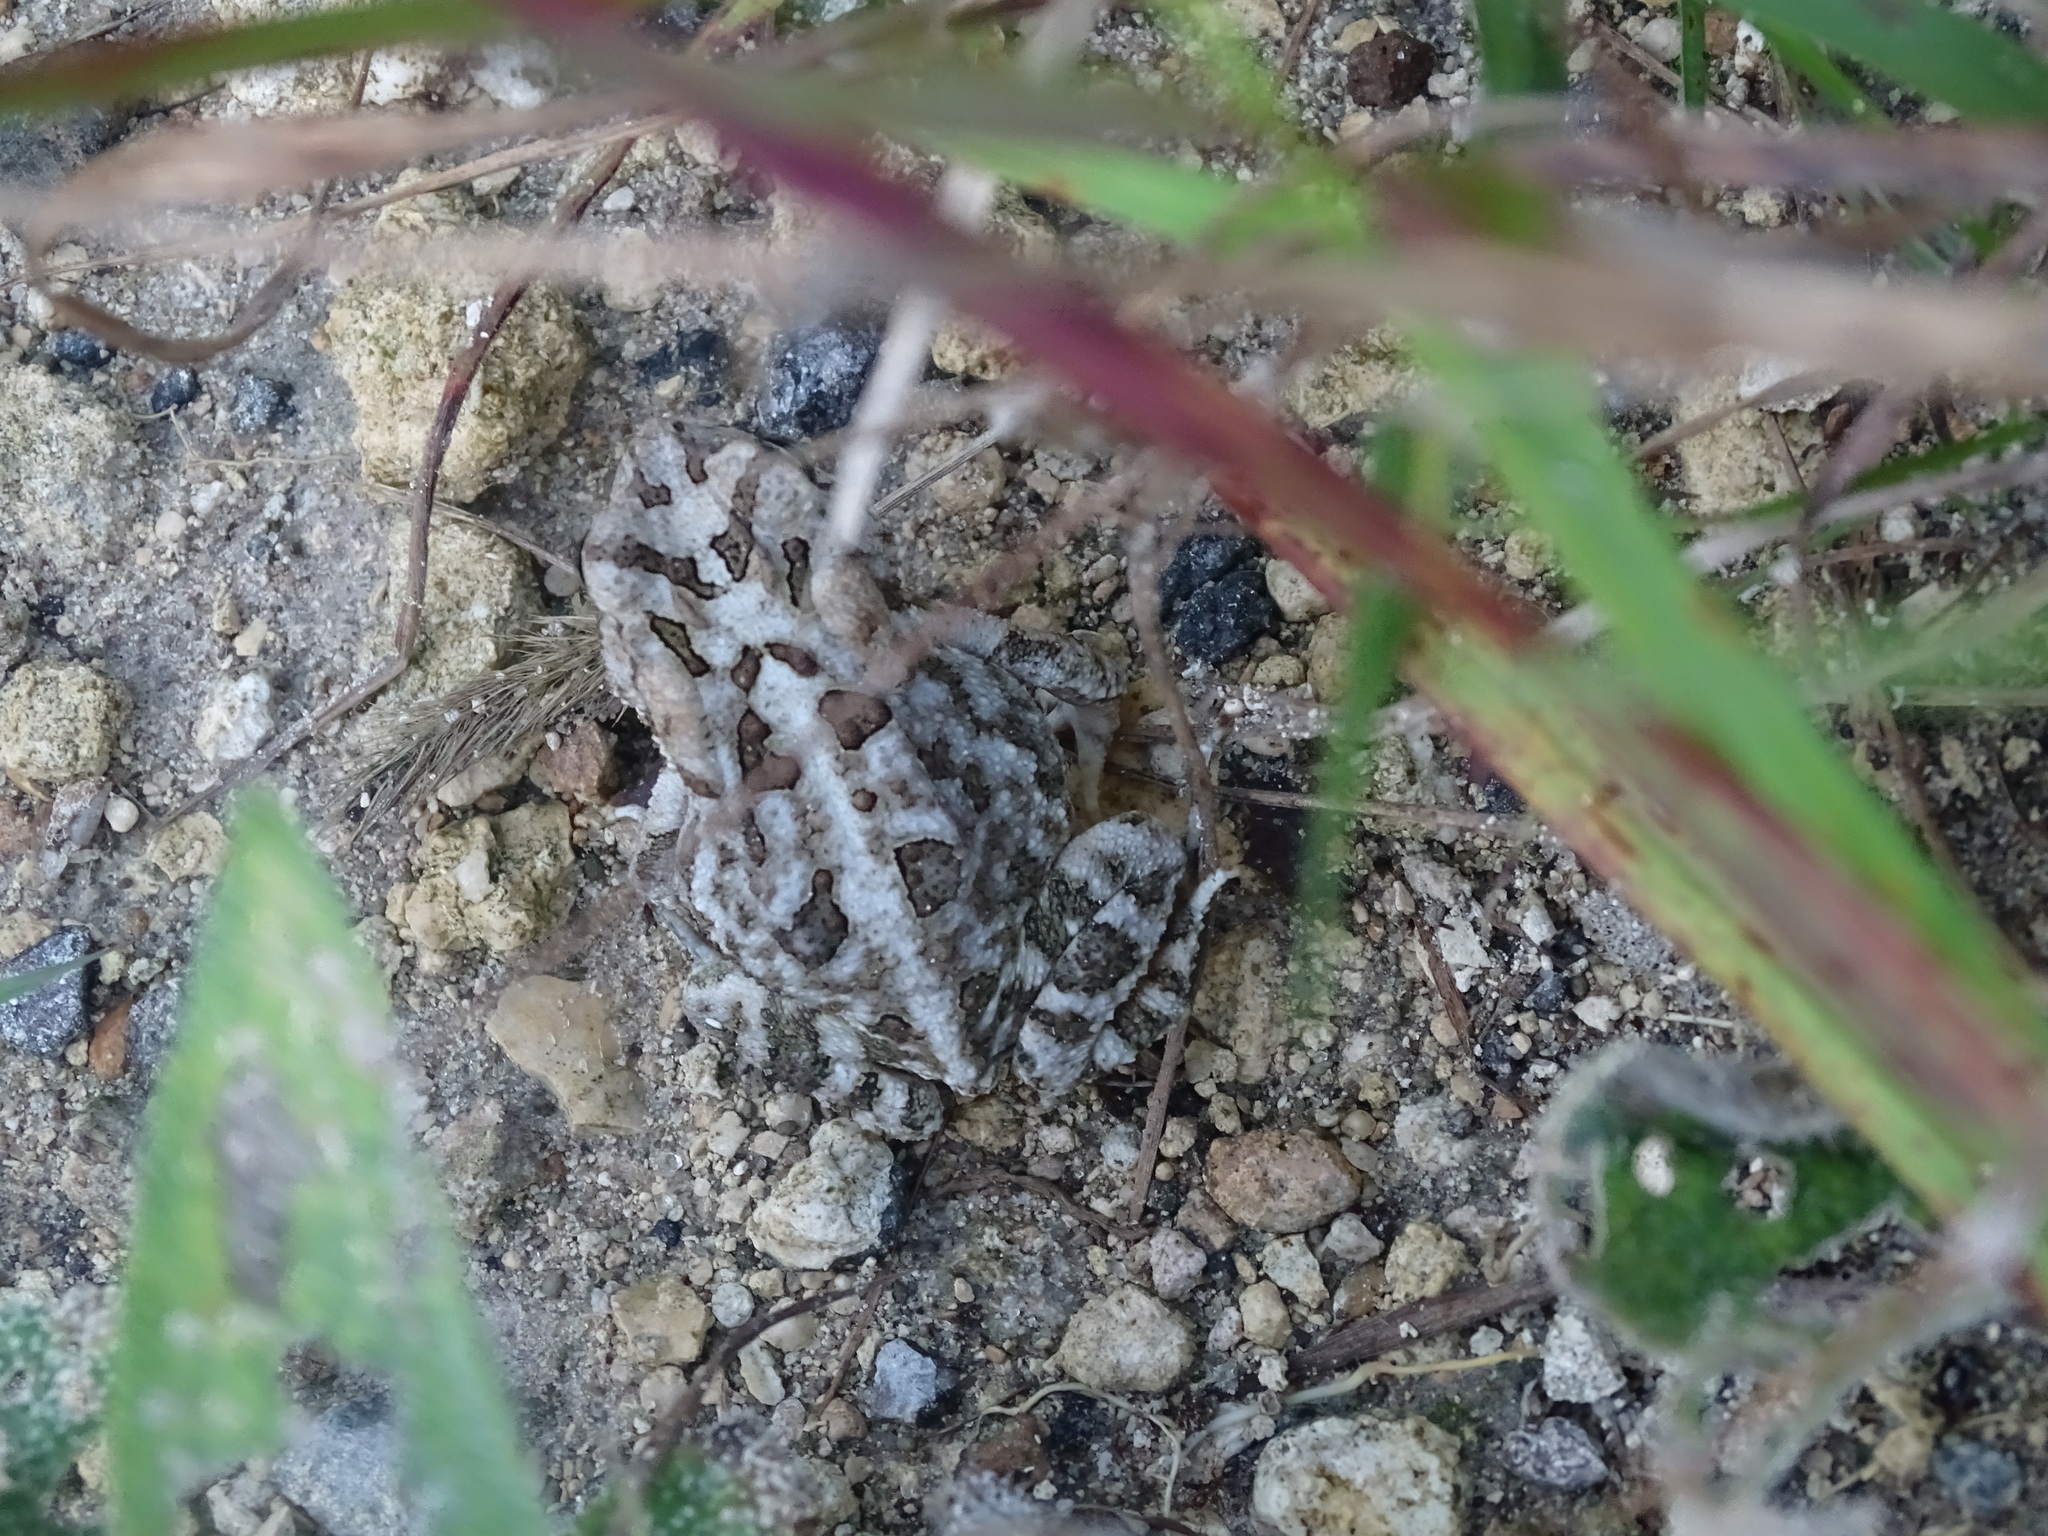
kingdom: Animalia
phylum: Chordata
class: Amphibia
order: Anura
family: Bufonidae
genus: Anaxyrus
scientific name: Anaxyrus terrestris
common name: Southern toad
